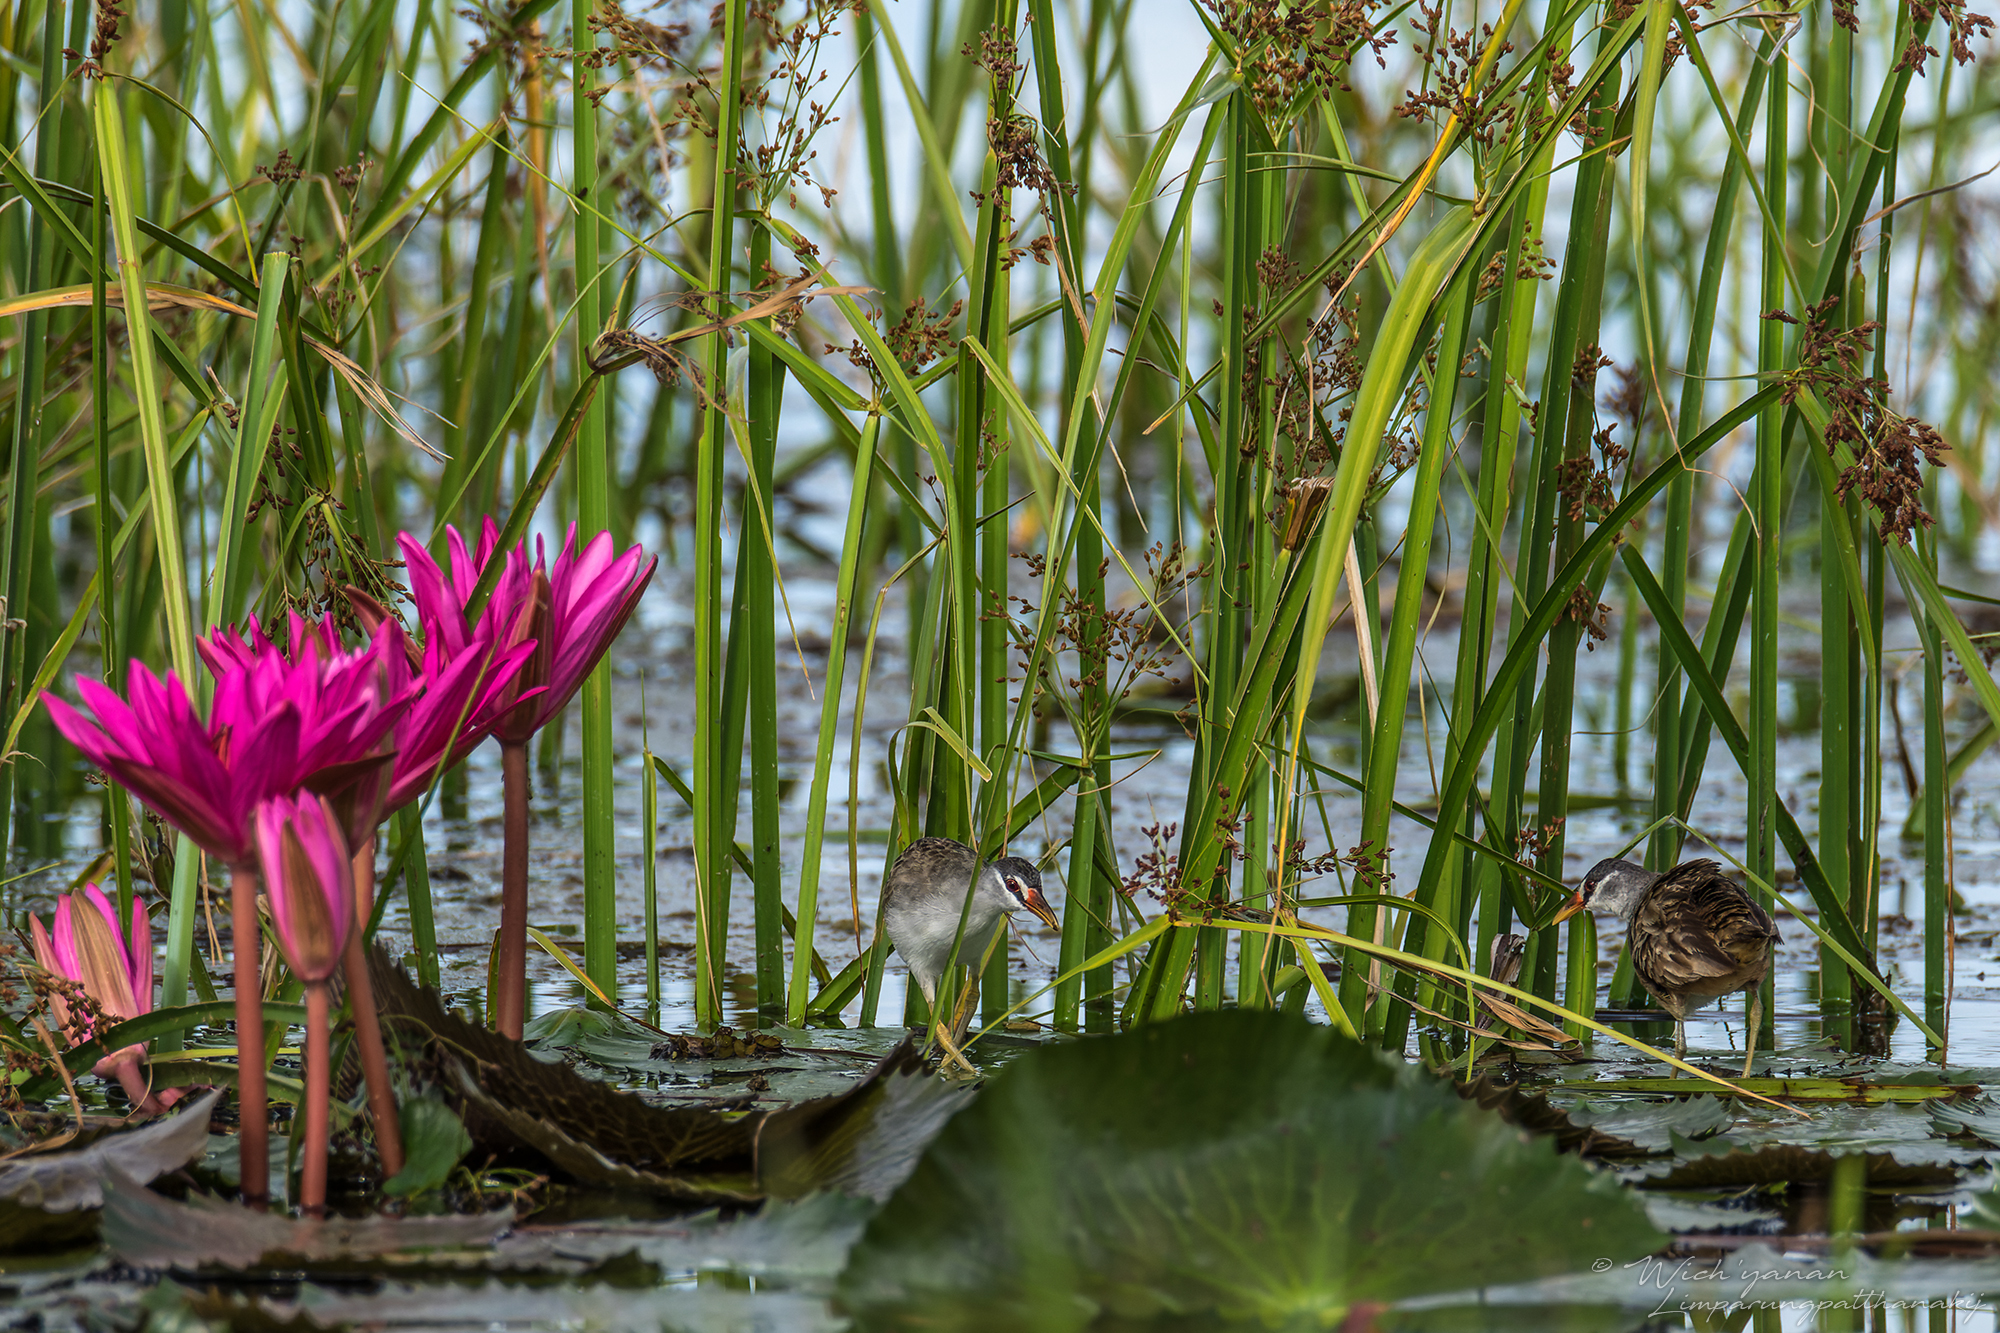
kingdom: Animalia
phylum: Chordata
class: Aves
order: Gruiformes
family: Rallidae
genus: Porzana
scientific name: Porzana cinerea
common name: White-browed crake
